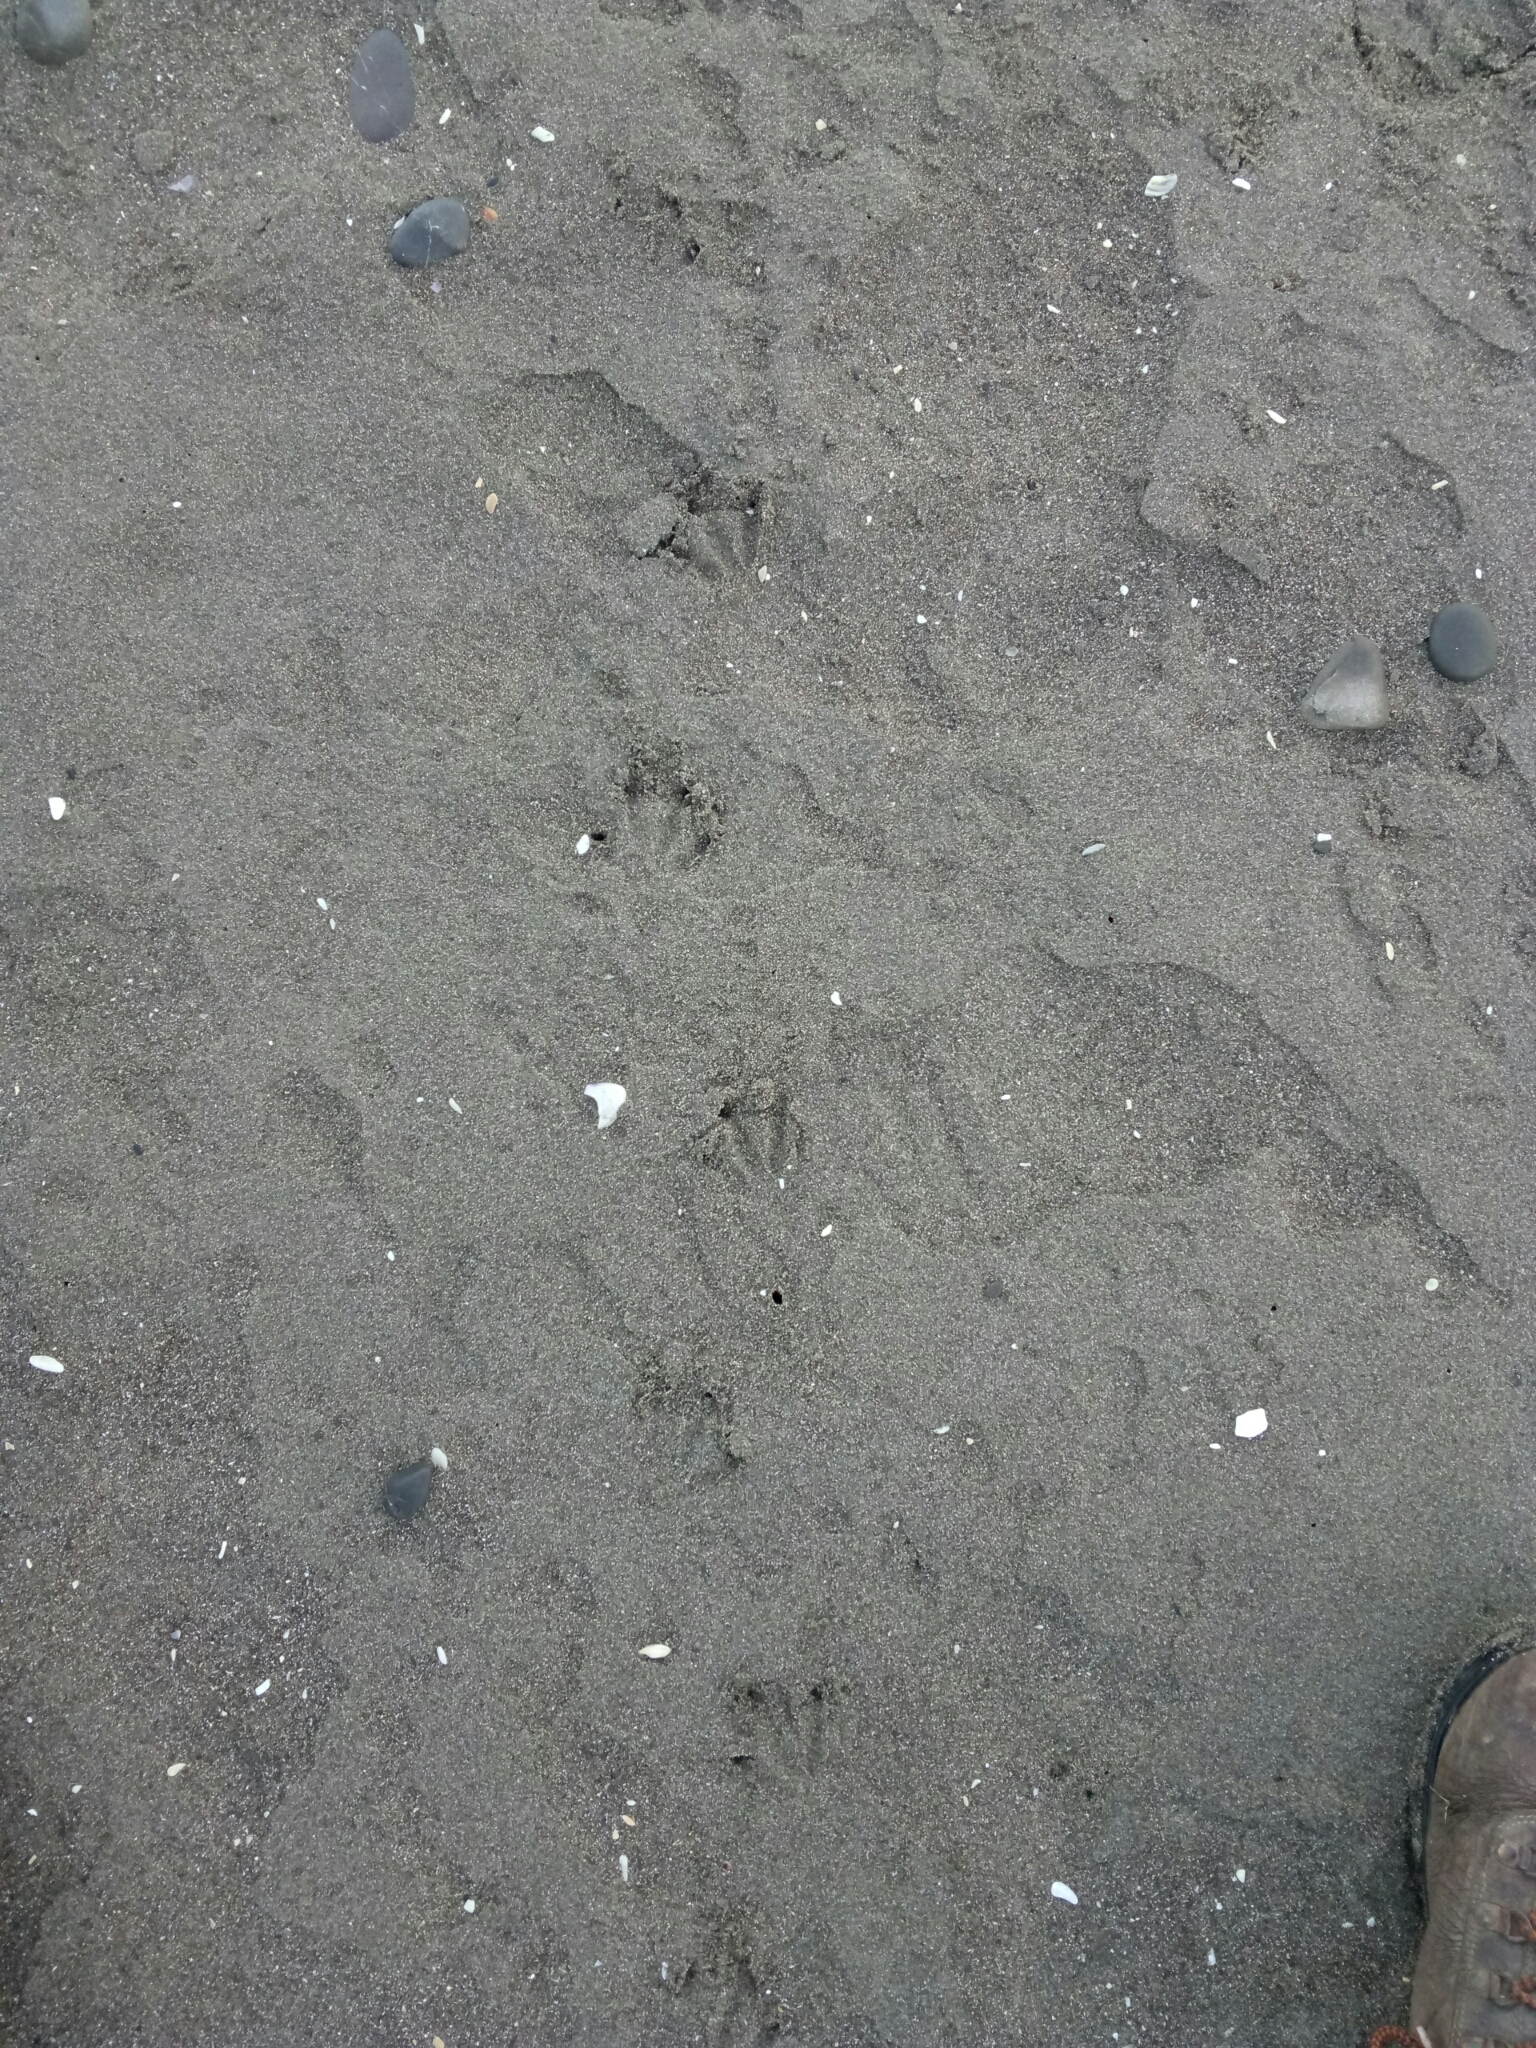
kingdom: Animalia
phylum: Chordata
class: Aves
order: Sphenisciformes
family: Spheniscidae
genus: Eudyptula
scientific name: Eudyptula minor
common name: Little penguin
